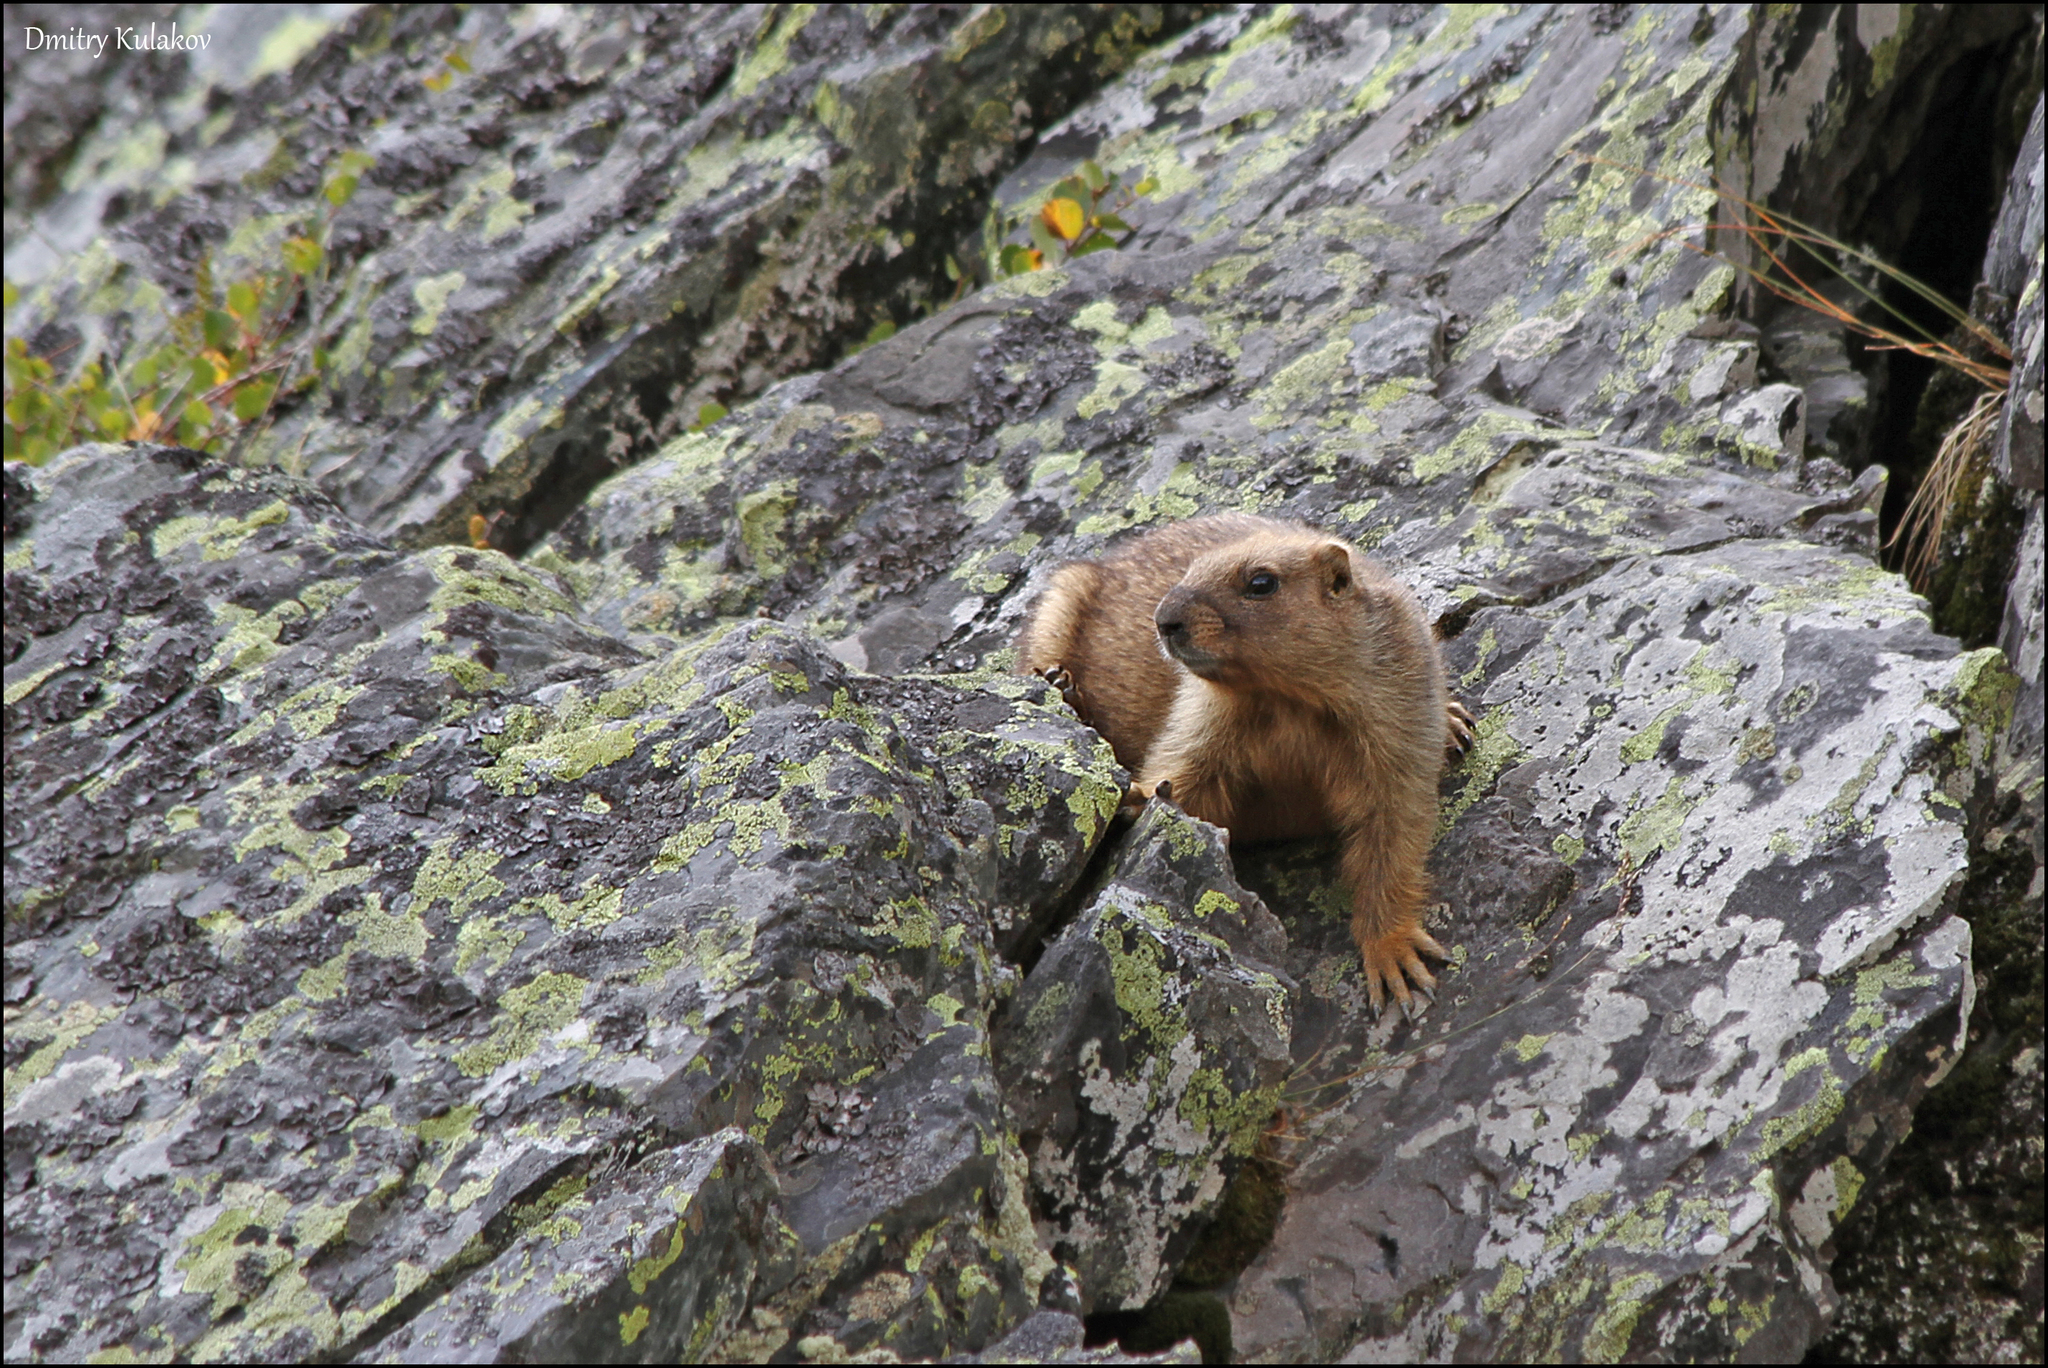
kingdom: Animalia
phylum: Chordata
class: Mammalia
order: Rodentia
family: Sciuridae
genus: Marmota
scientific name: Marmota baibacina
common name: Gray marmot
